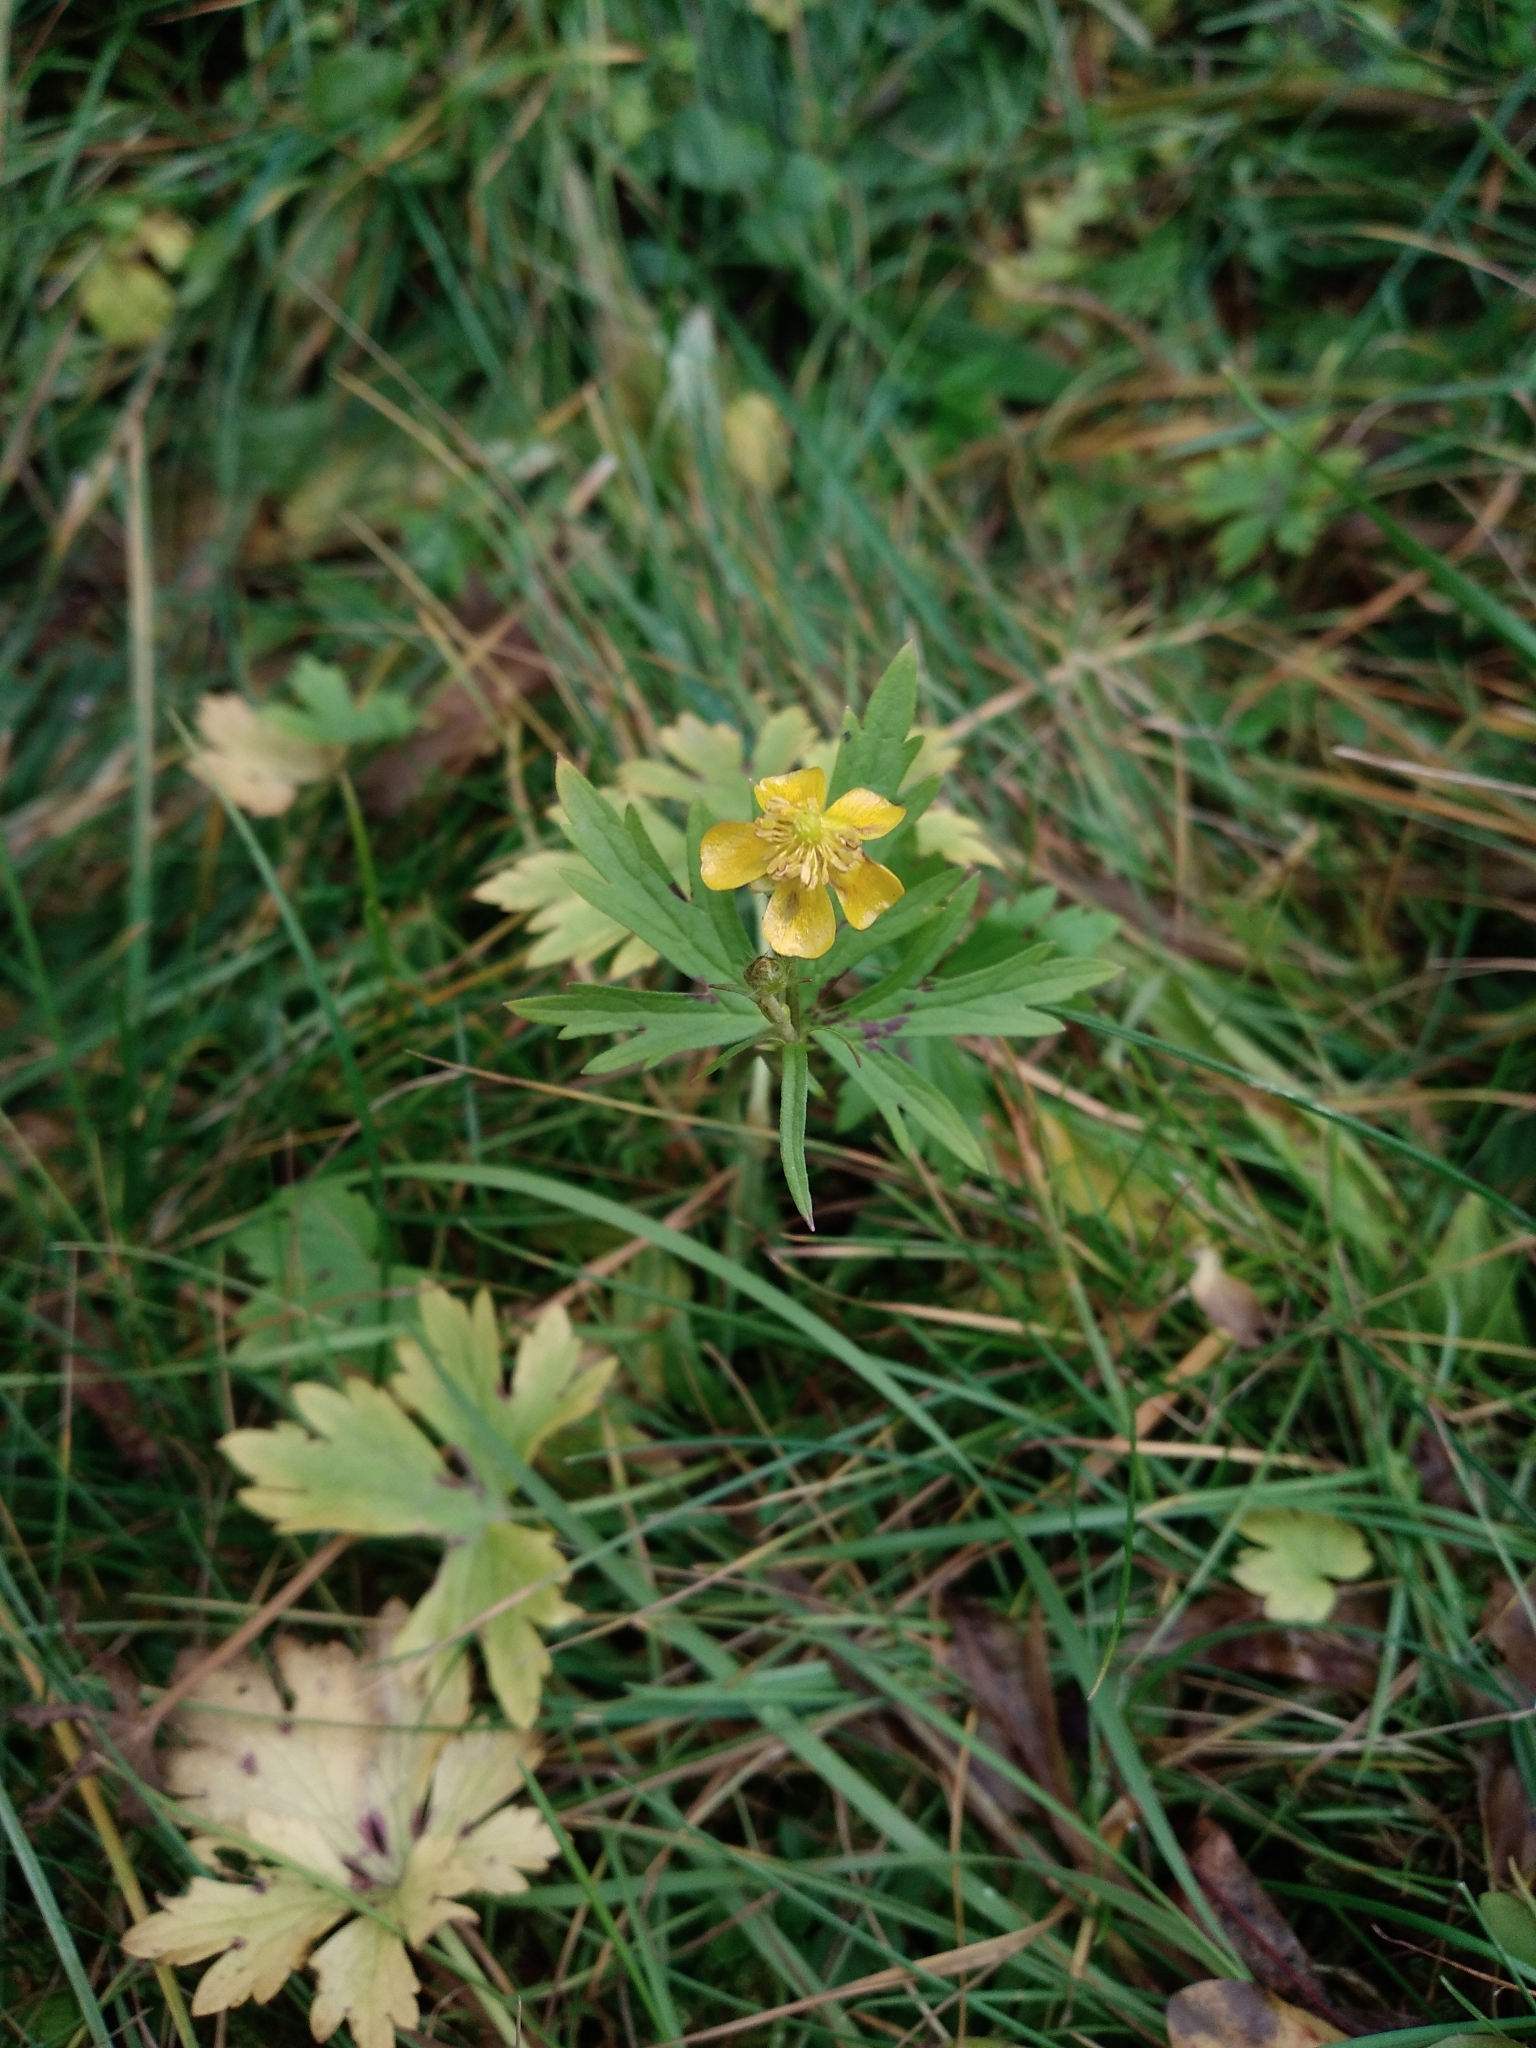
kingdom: Plantae
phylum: Tracheophyta
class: Magnoliopsida
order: Ranunculales
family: Ranunculaceae
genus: Ranunculus
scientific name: Ranunculus repens
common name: Creeping buttercup
